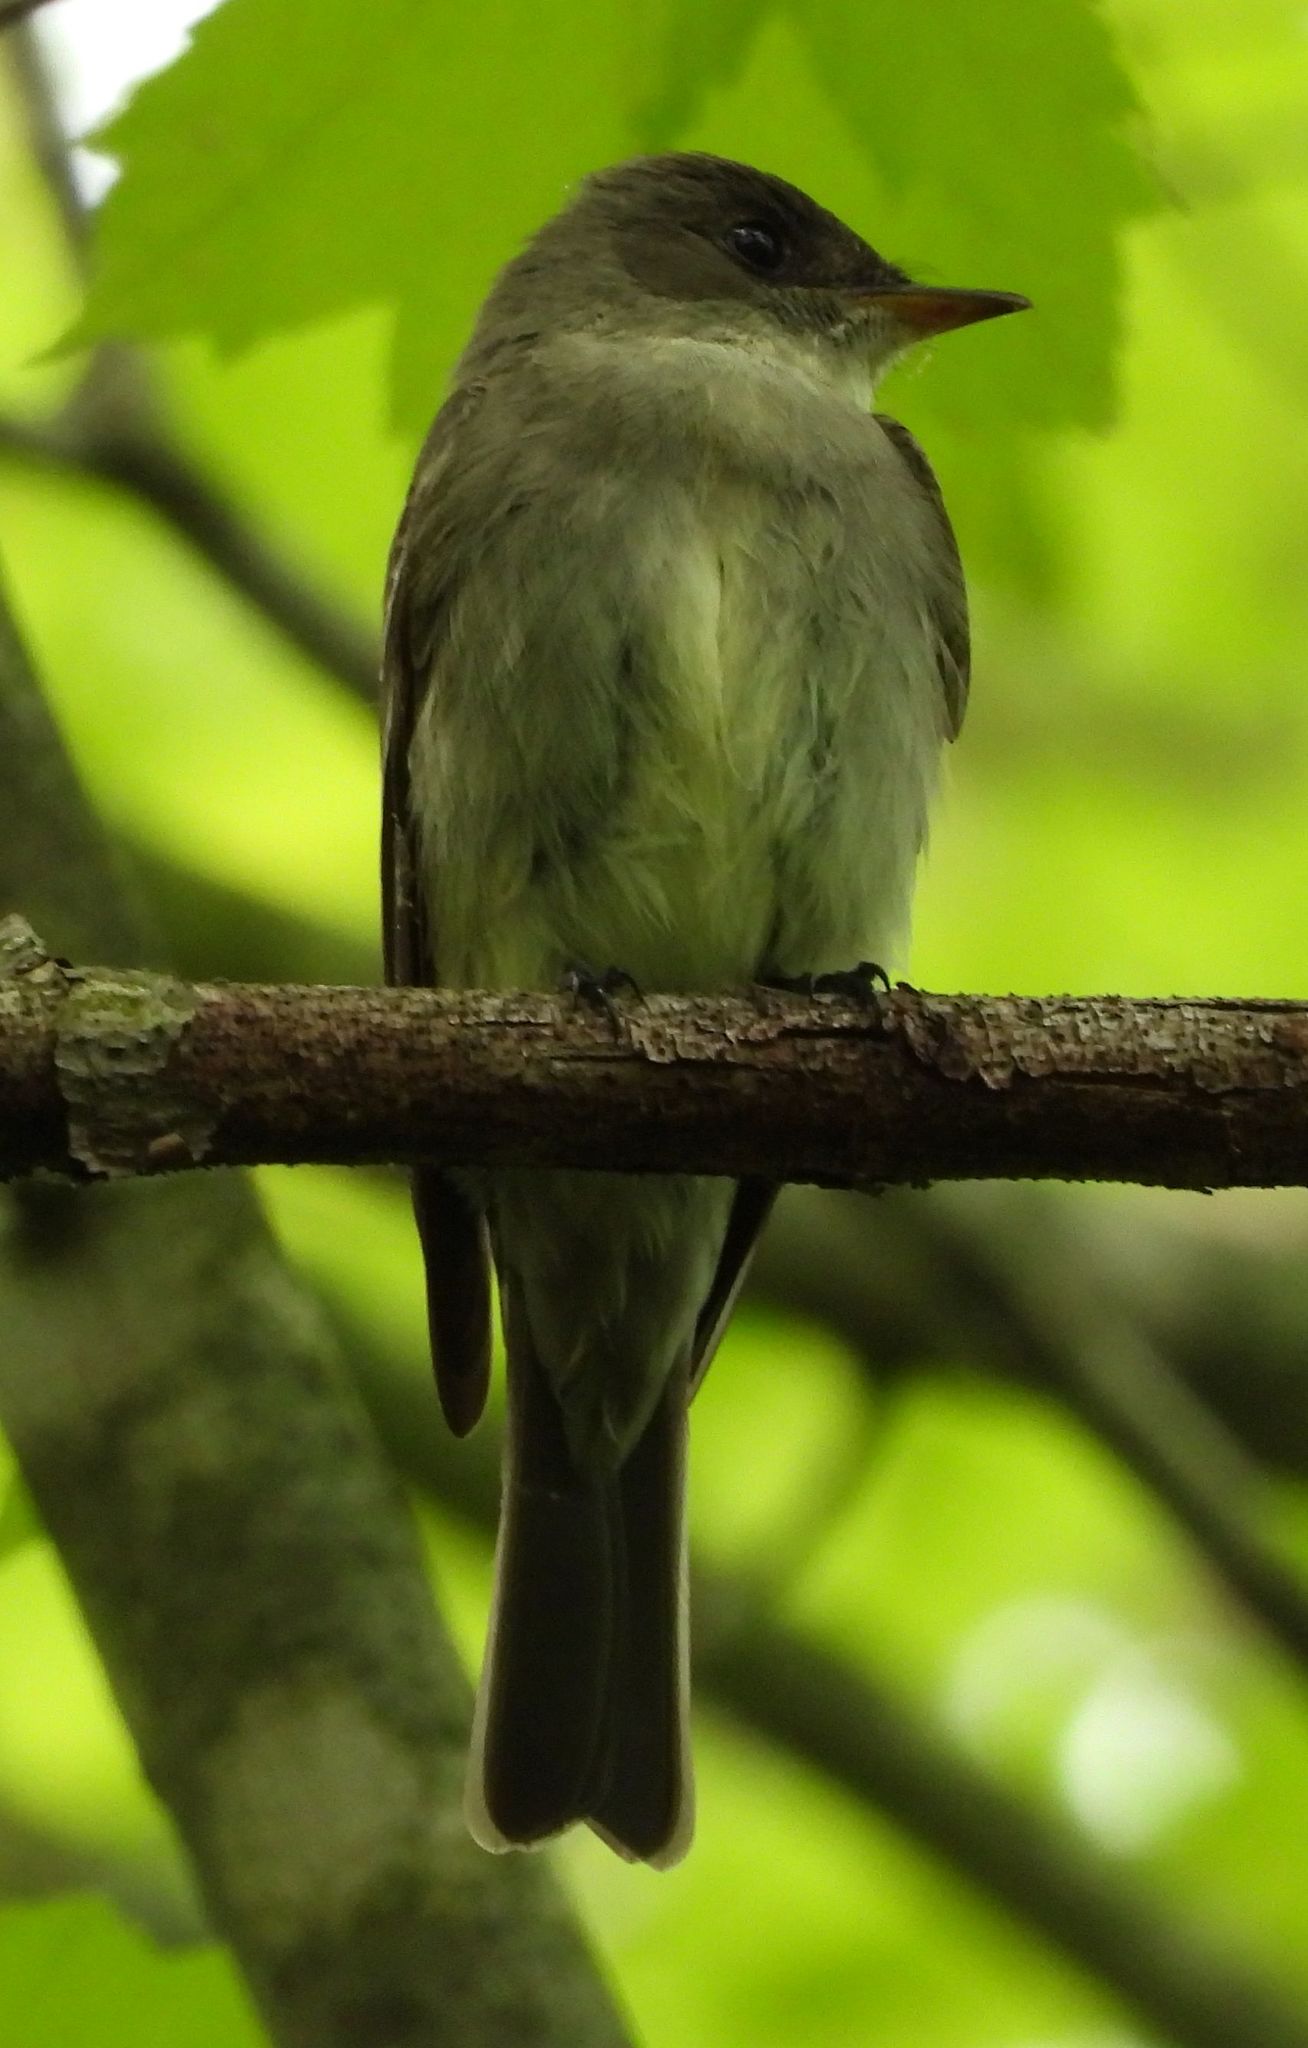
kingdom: Animalia
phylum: Chordata
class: Aves
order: Passeriformes
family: Tyrannidae
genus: Contopus
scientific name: Contopus virens
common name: Eastern wood-pewee
